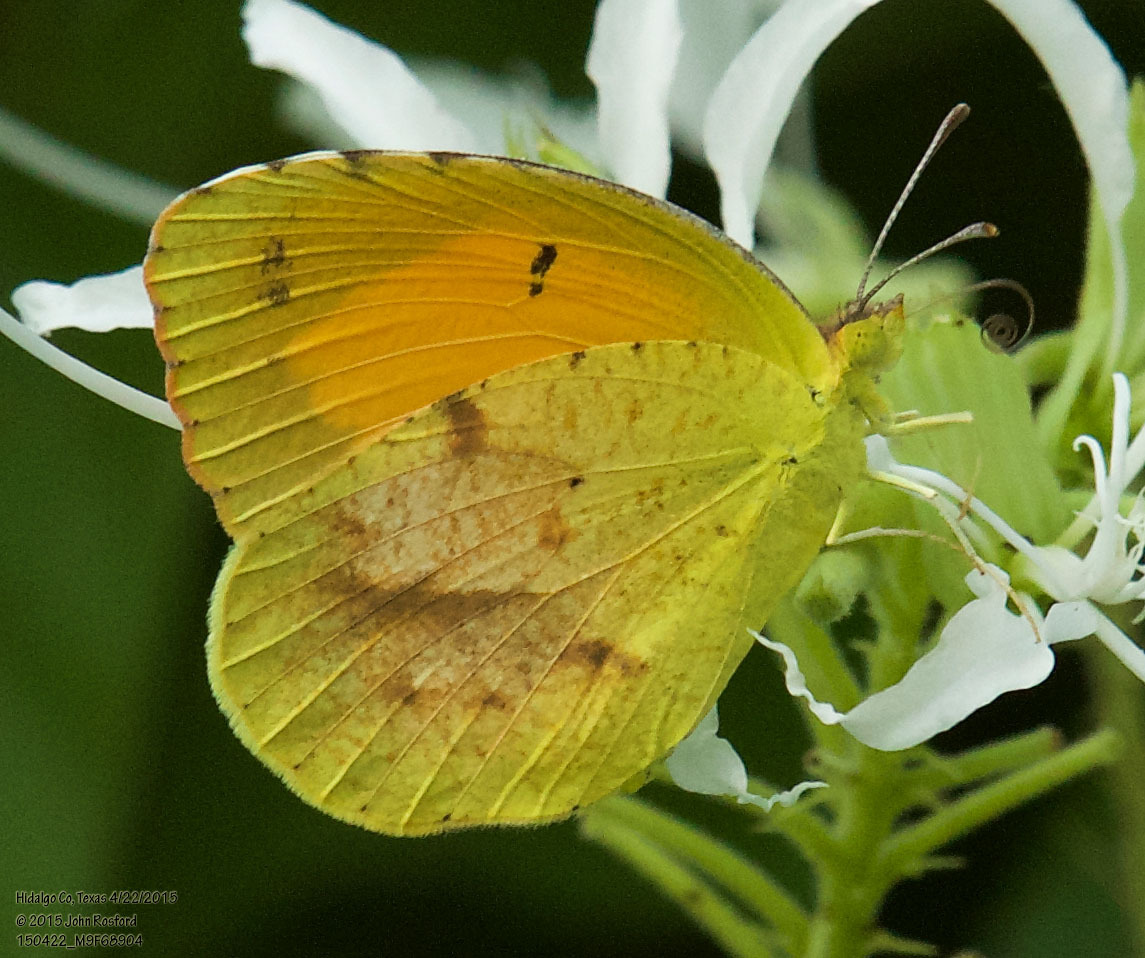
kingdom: Animalia
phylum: Arthropoda
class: Insecta
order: Lepidoptera
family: Pieridae
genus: Abaeis
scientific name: Abaeis nicippe
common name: Sleepy orange
